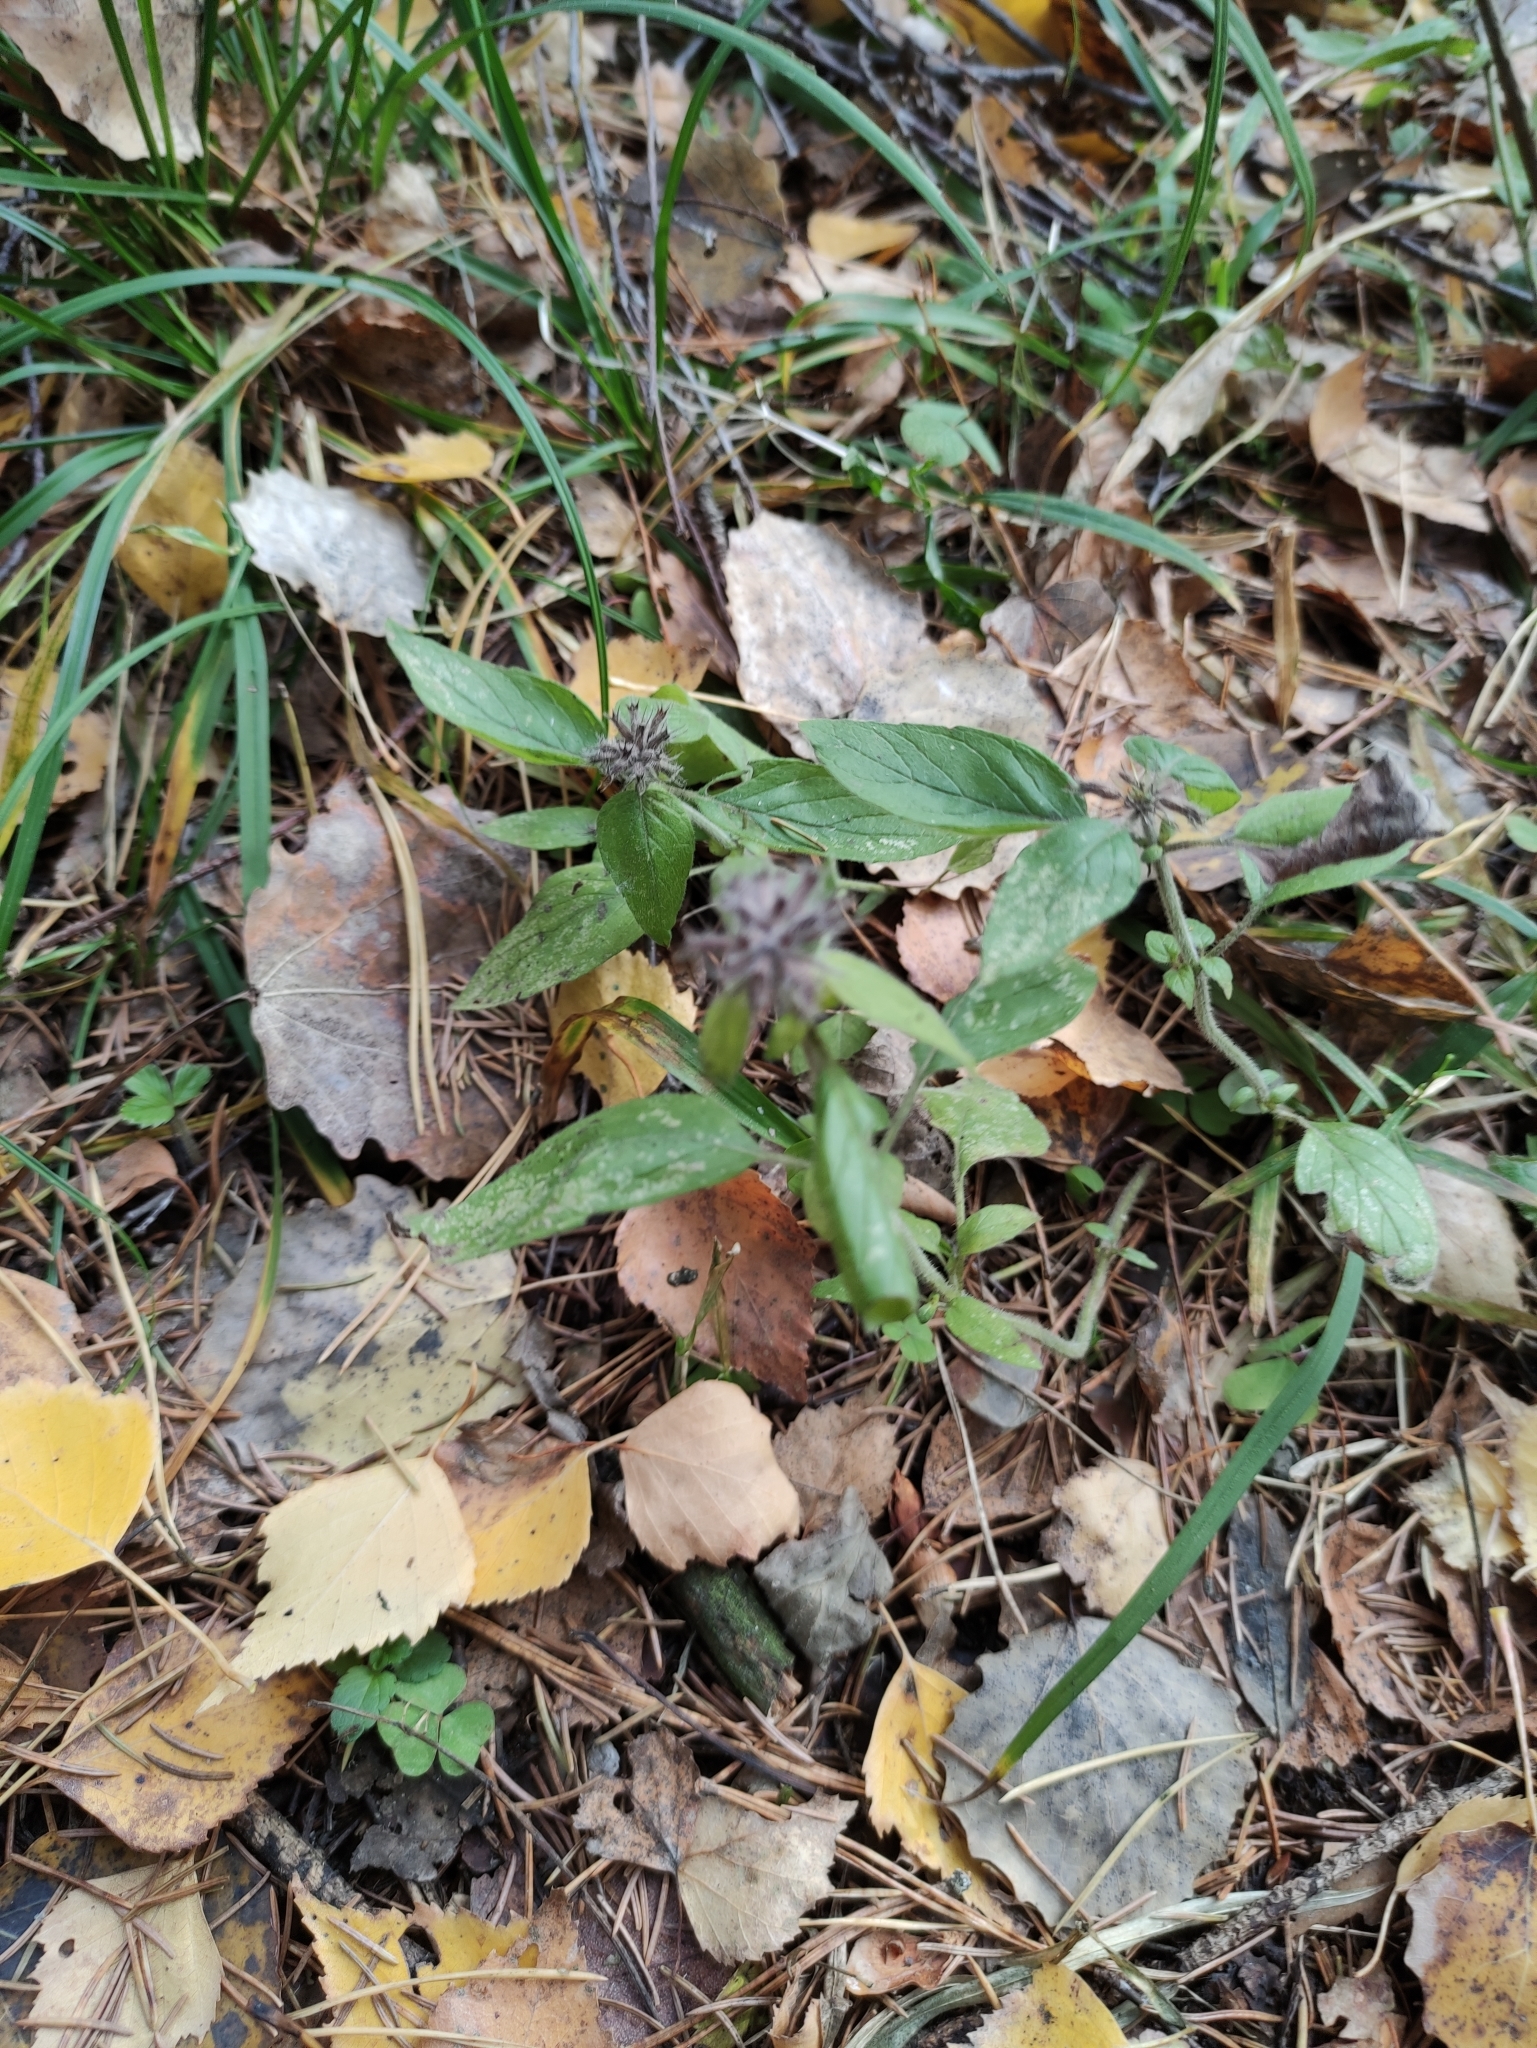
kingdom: Plantae
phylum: Tracheophyta
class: Magnoliopsida
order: Lamiales
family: Lamiaceae
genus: Clinopodium
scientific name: Clinopodium vulgare
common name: Wild basil
